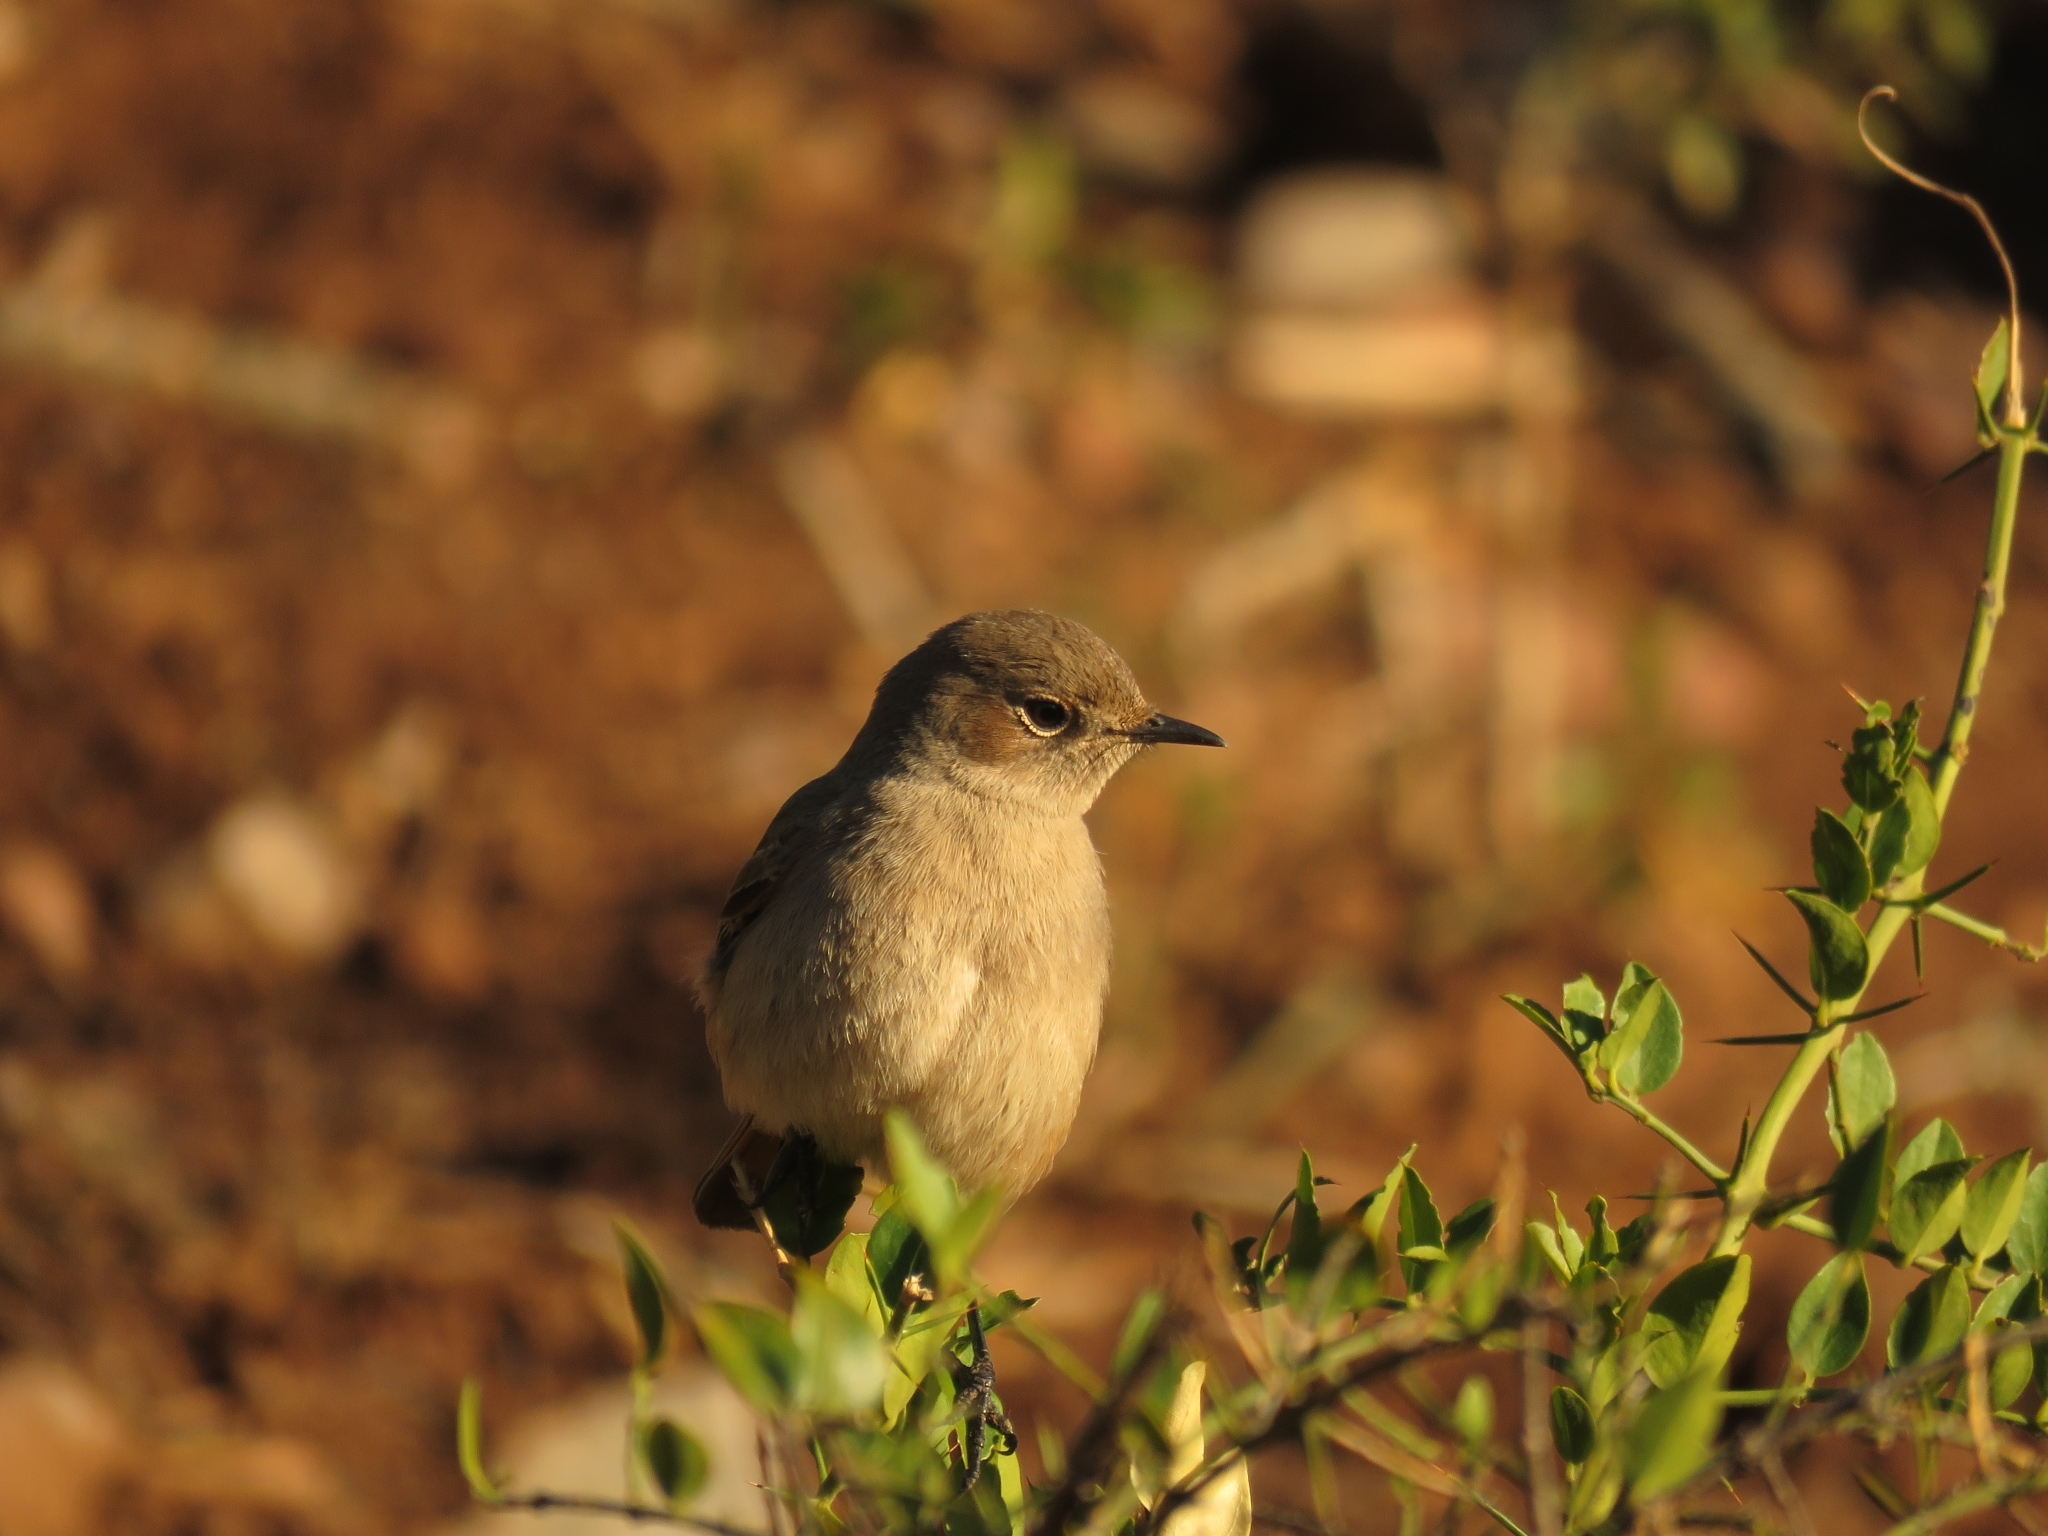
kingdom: Animalia
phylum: Chordata
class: Aves
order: Passeriformes
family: Muscicapidae
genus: Oenanthe
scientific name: Oenanthe familiaris
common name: Familiar chat
